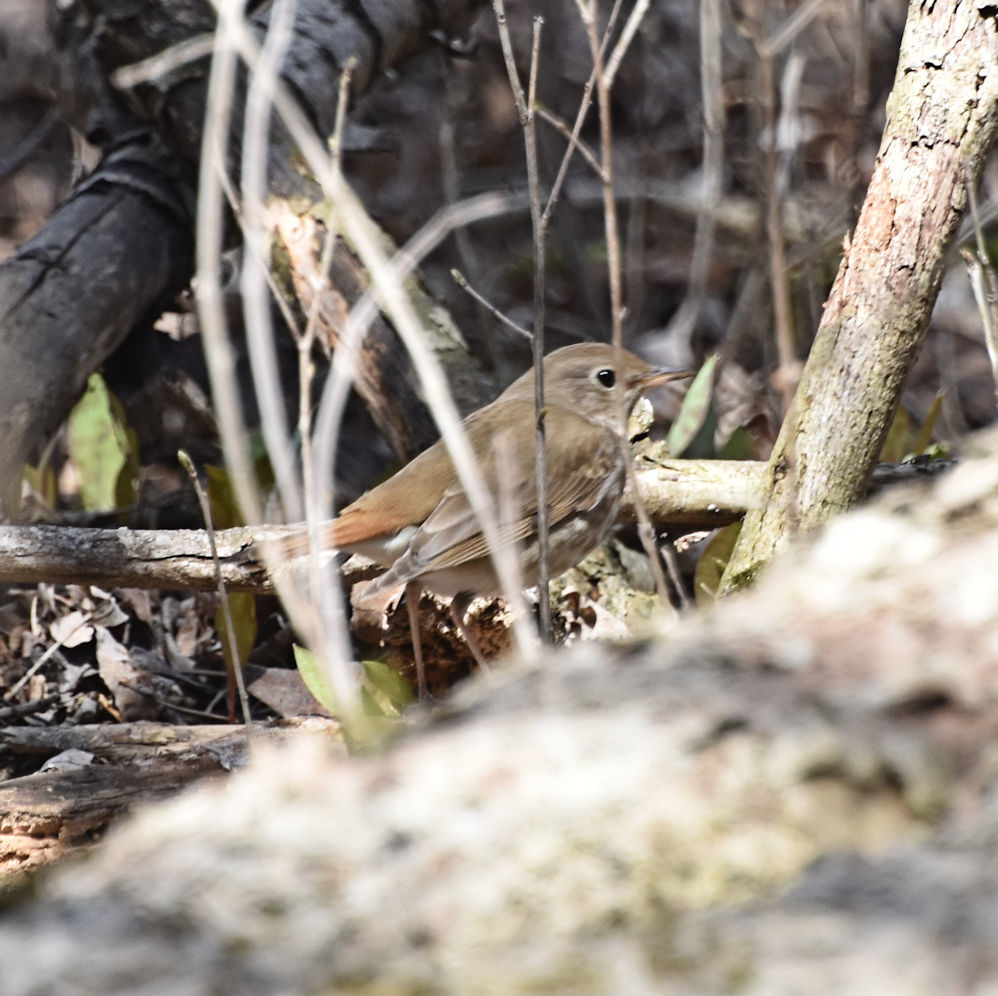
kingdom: Animalia
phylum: Chordata
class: Aves
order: Passeriformes
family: Turdidae
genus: Catharus
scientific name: Catharus guttatus
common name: Hermit thrush
